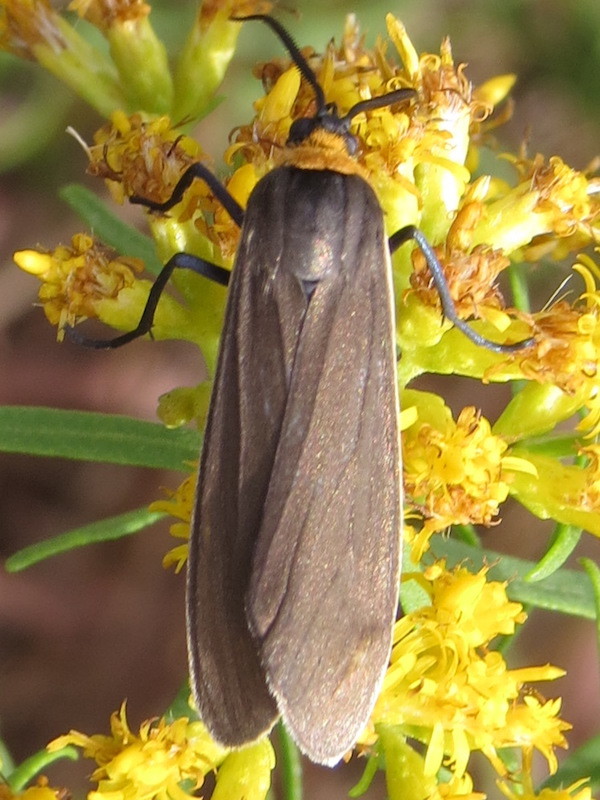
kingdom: Animalia
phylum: Arthropoda
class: Insecta
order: Lepidoptera
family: Erebidae
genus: Cisseps
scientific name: Cisseps fulvicollis
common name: Yellow-collared scape moth
